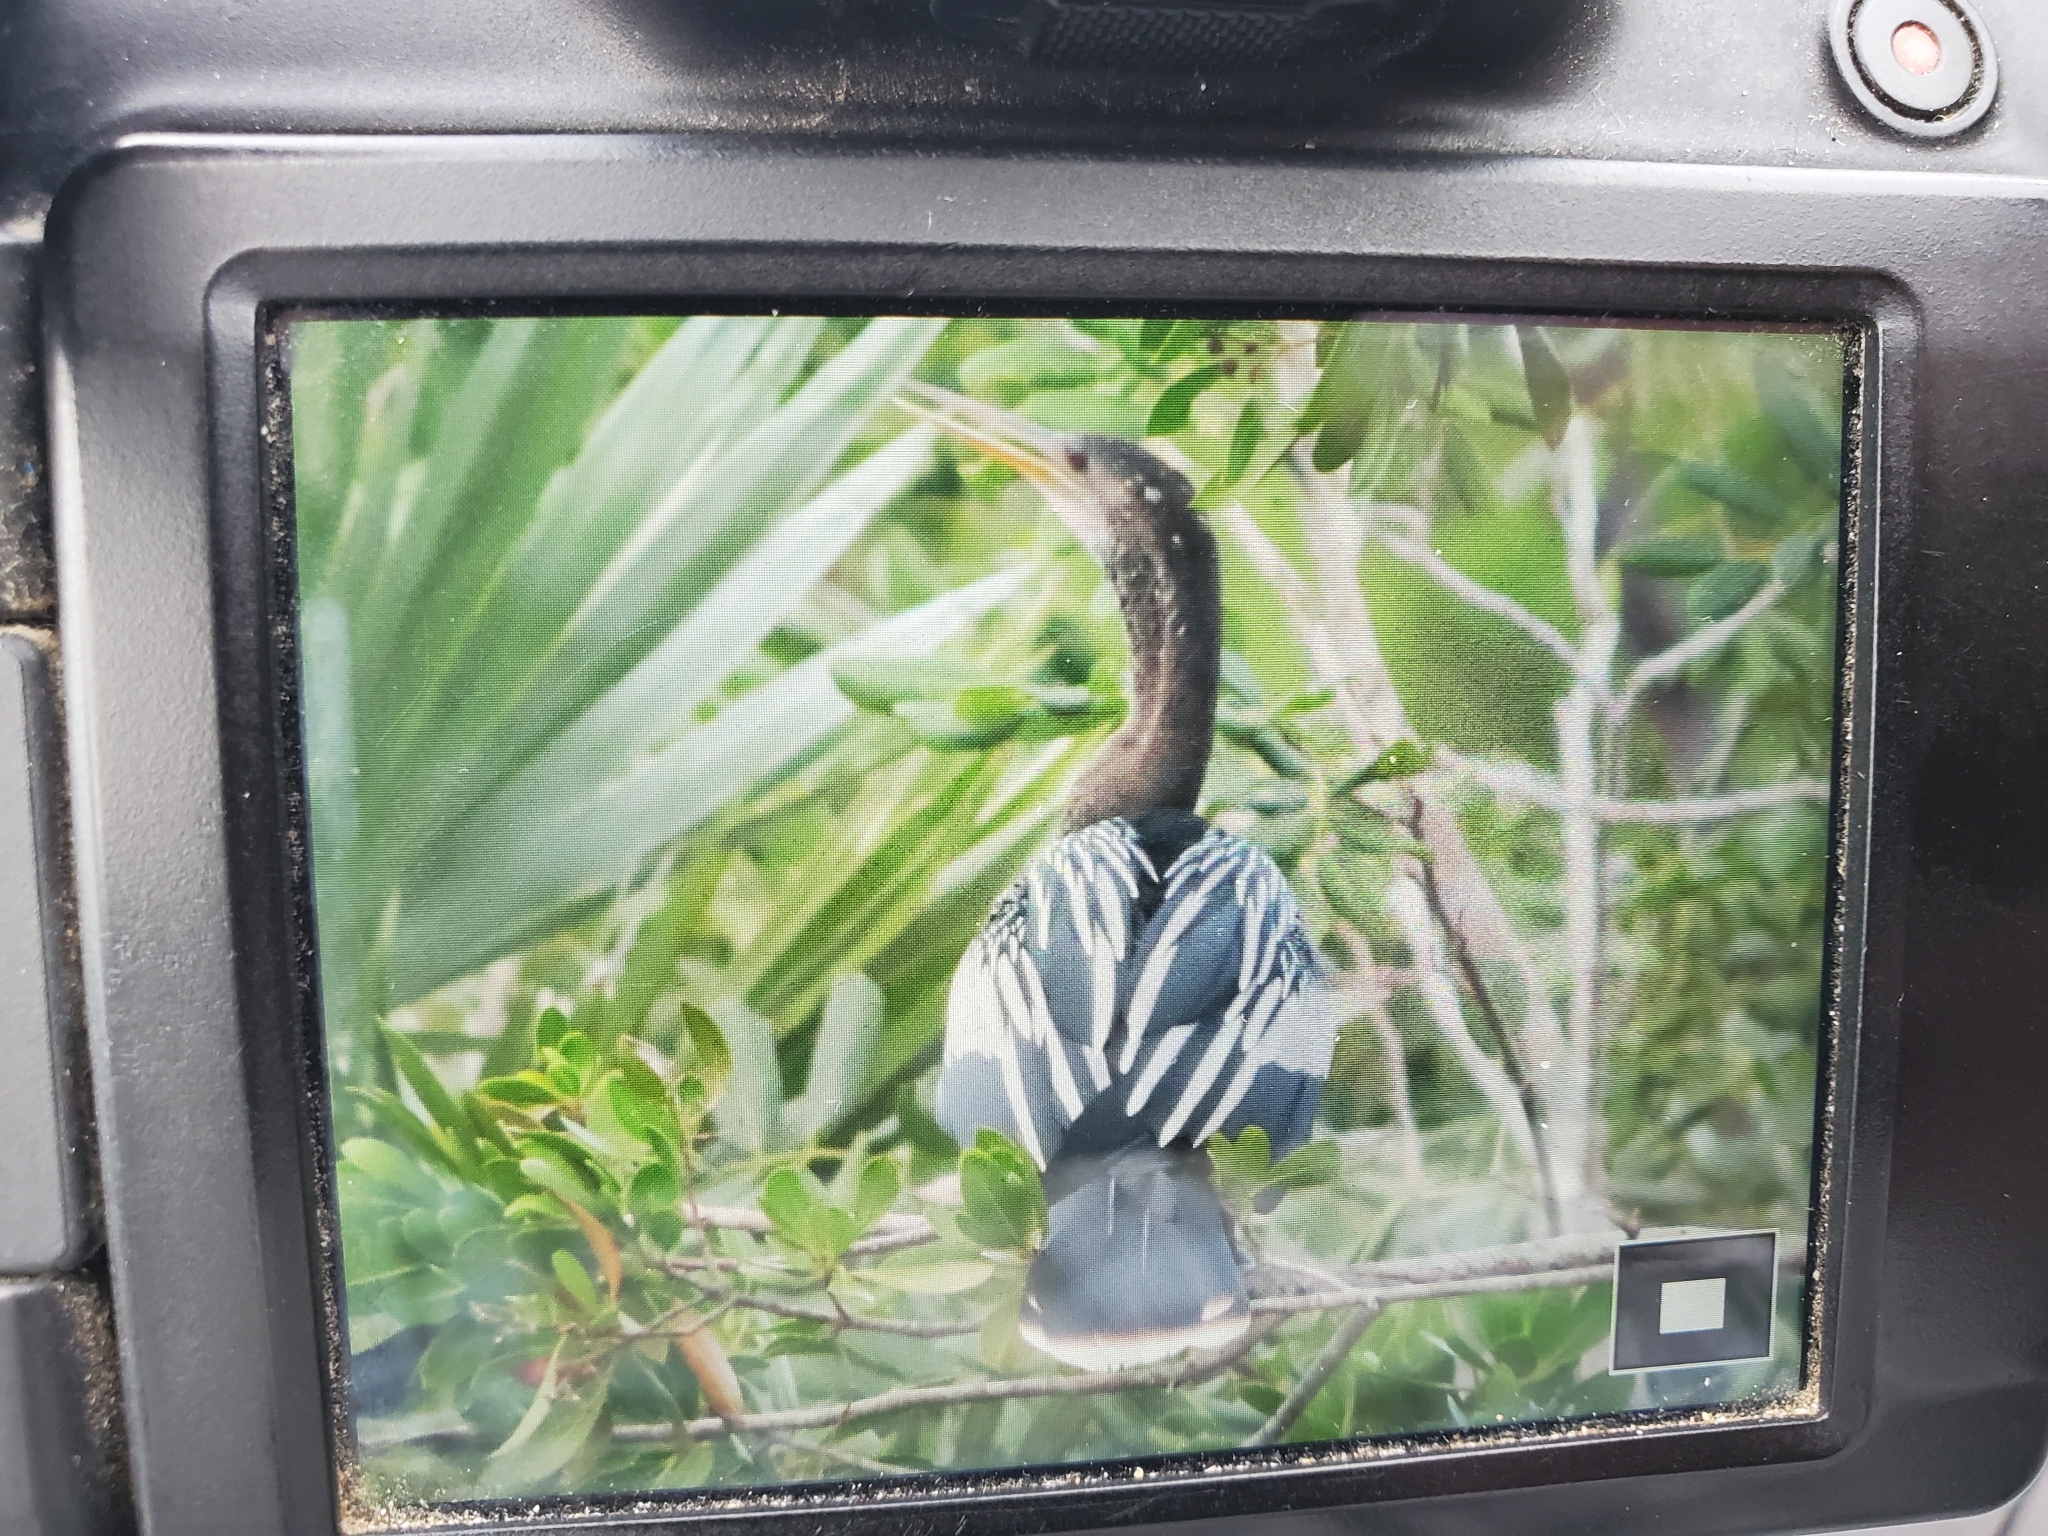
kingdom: Animalia
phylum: Chordata
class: Aves
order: Suliformes
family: Anhingidae
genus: Anhinga
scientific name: Anhinga anhinga
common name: Anhinga
